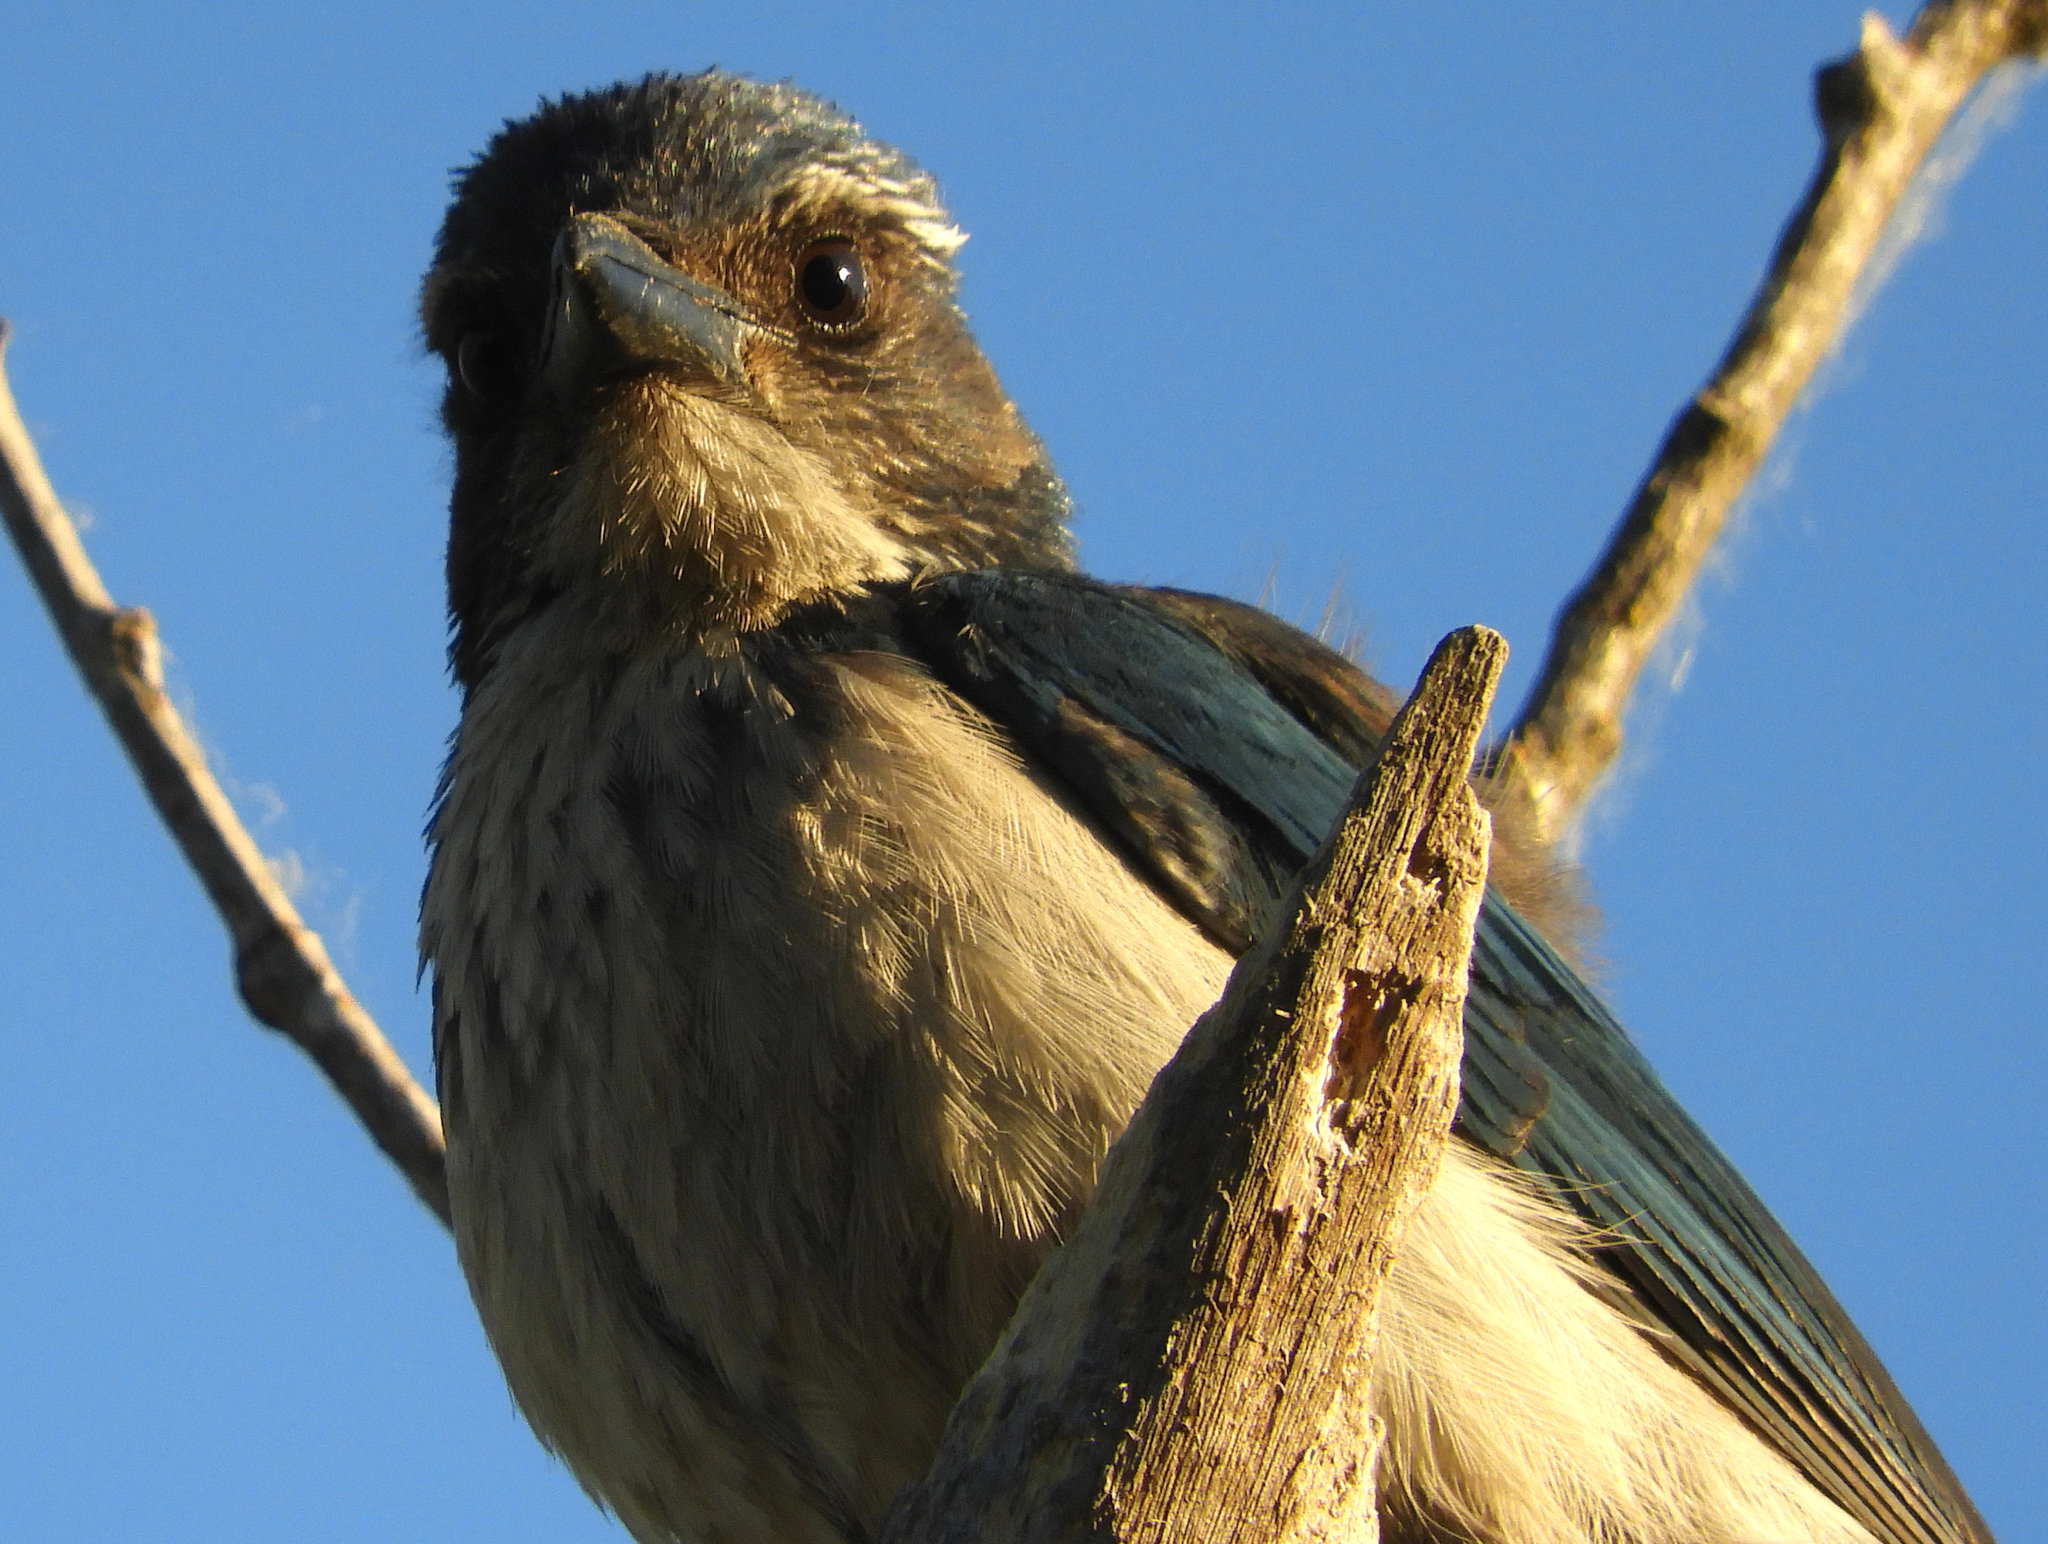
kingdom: Animalia
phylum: Chordata
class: Aves
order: Passeriformes
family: Corvidae
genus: Aphelocoma
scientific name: Aphelocoma californica
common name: California scrub-jay
